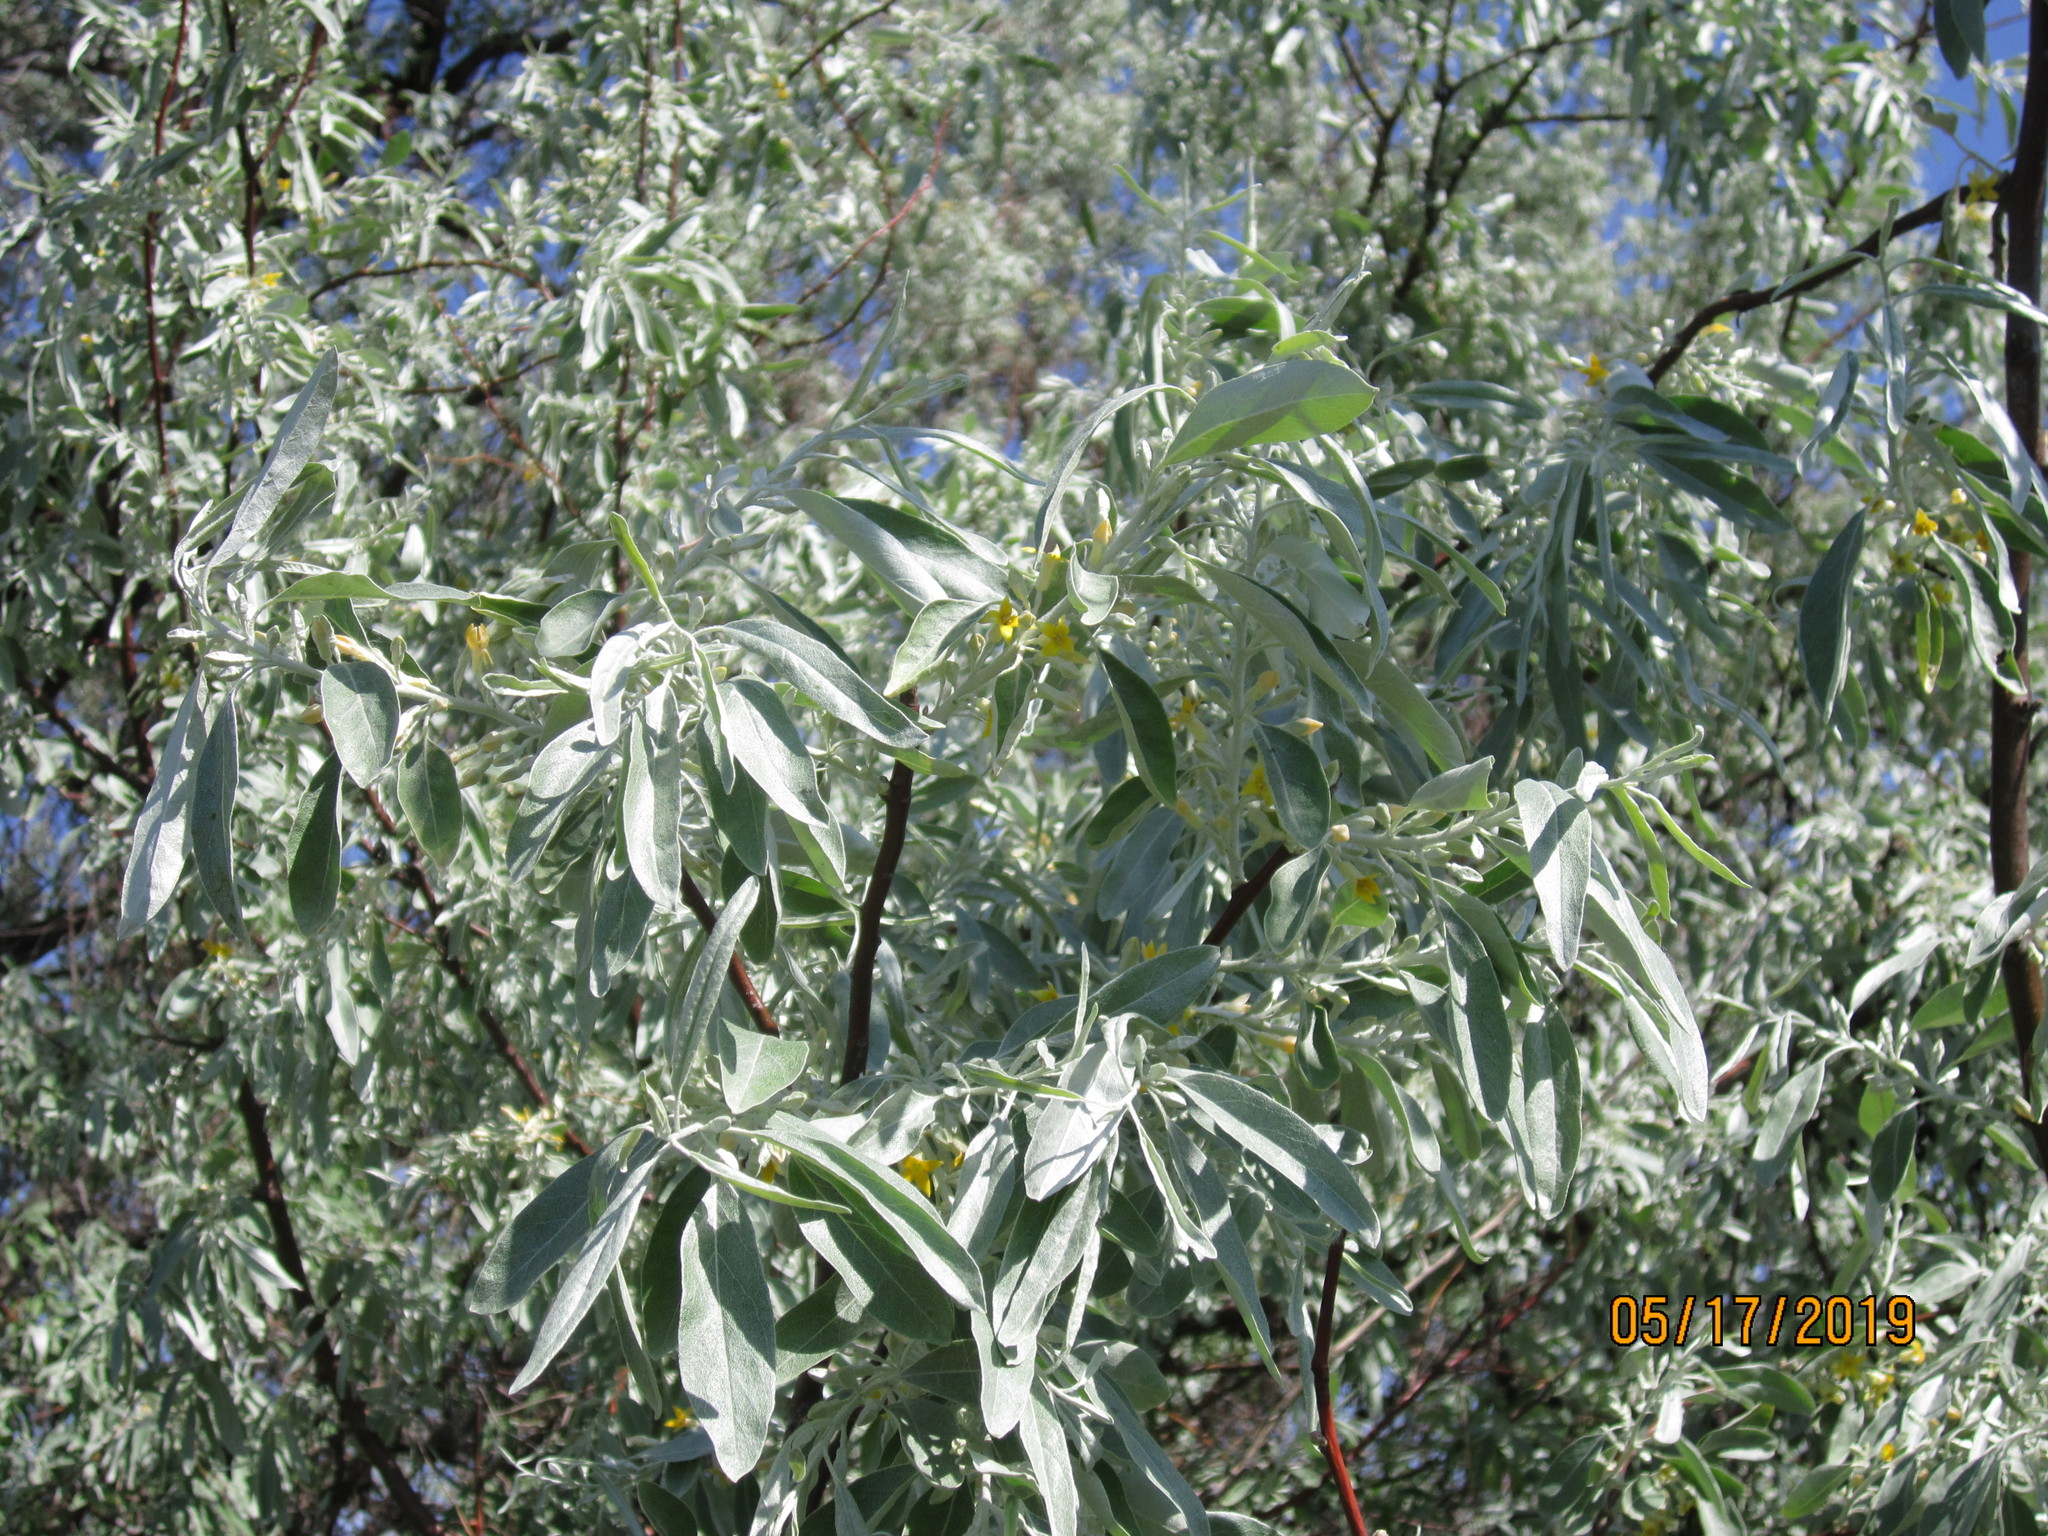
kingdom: Plantae
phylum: Tracheophyta
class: Magnoliopsida
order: Rosales
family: Elaeagnaceae
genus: Elaeagnus
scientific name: Elaeagnus angustifolia
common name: Russian olive
